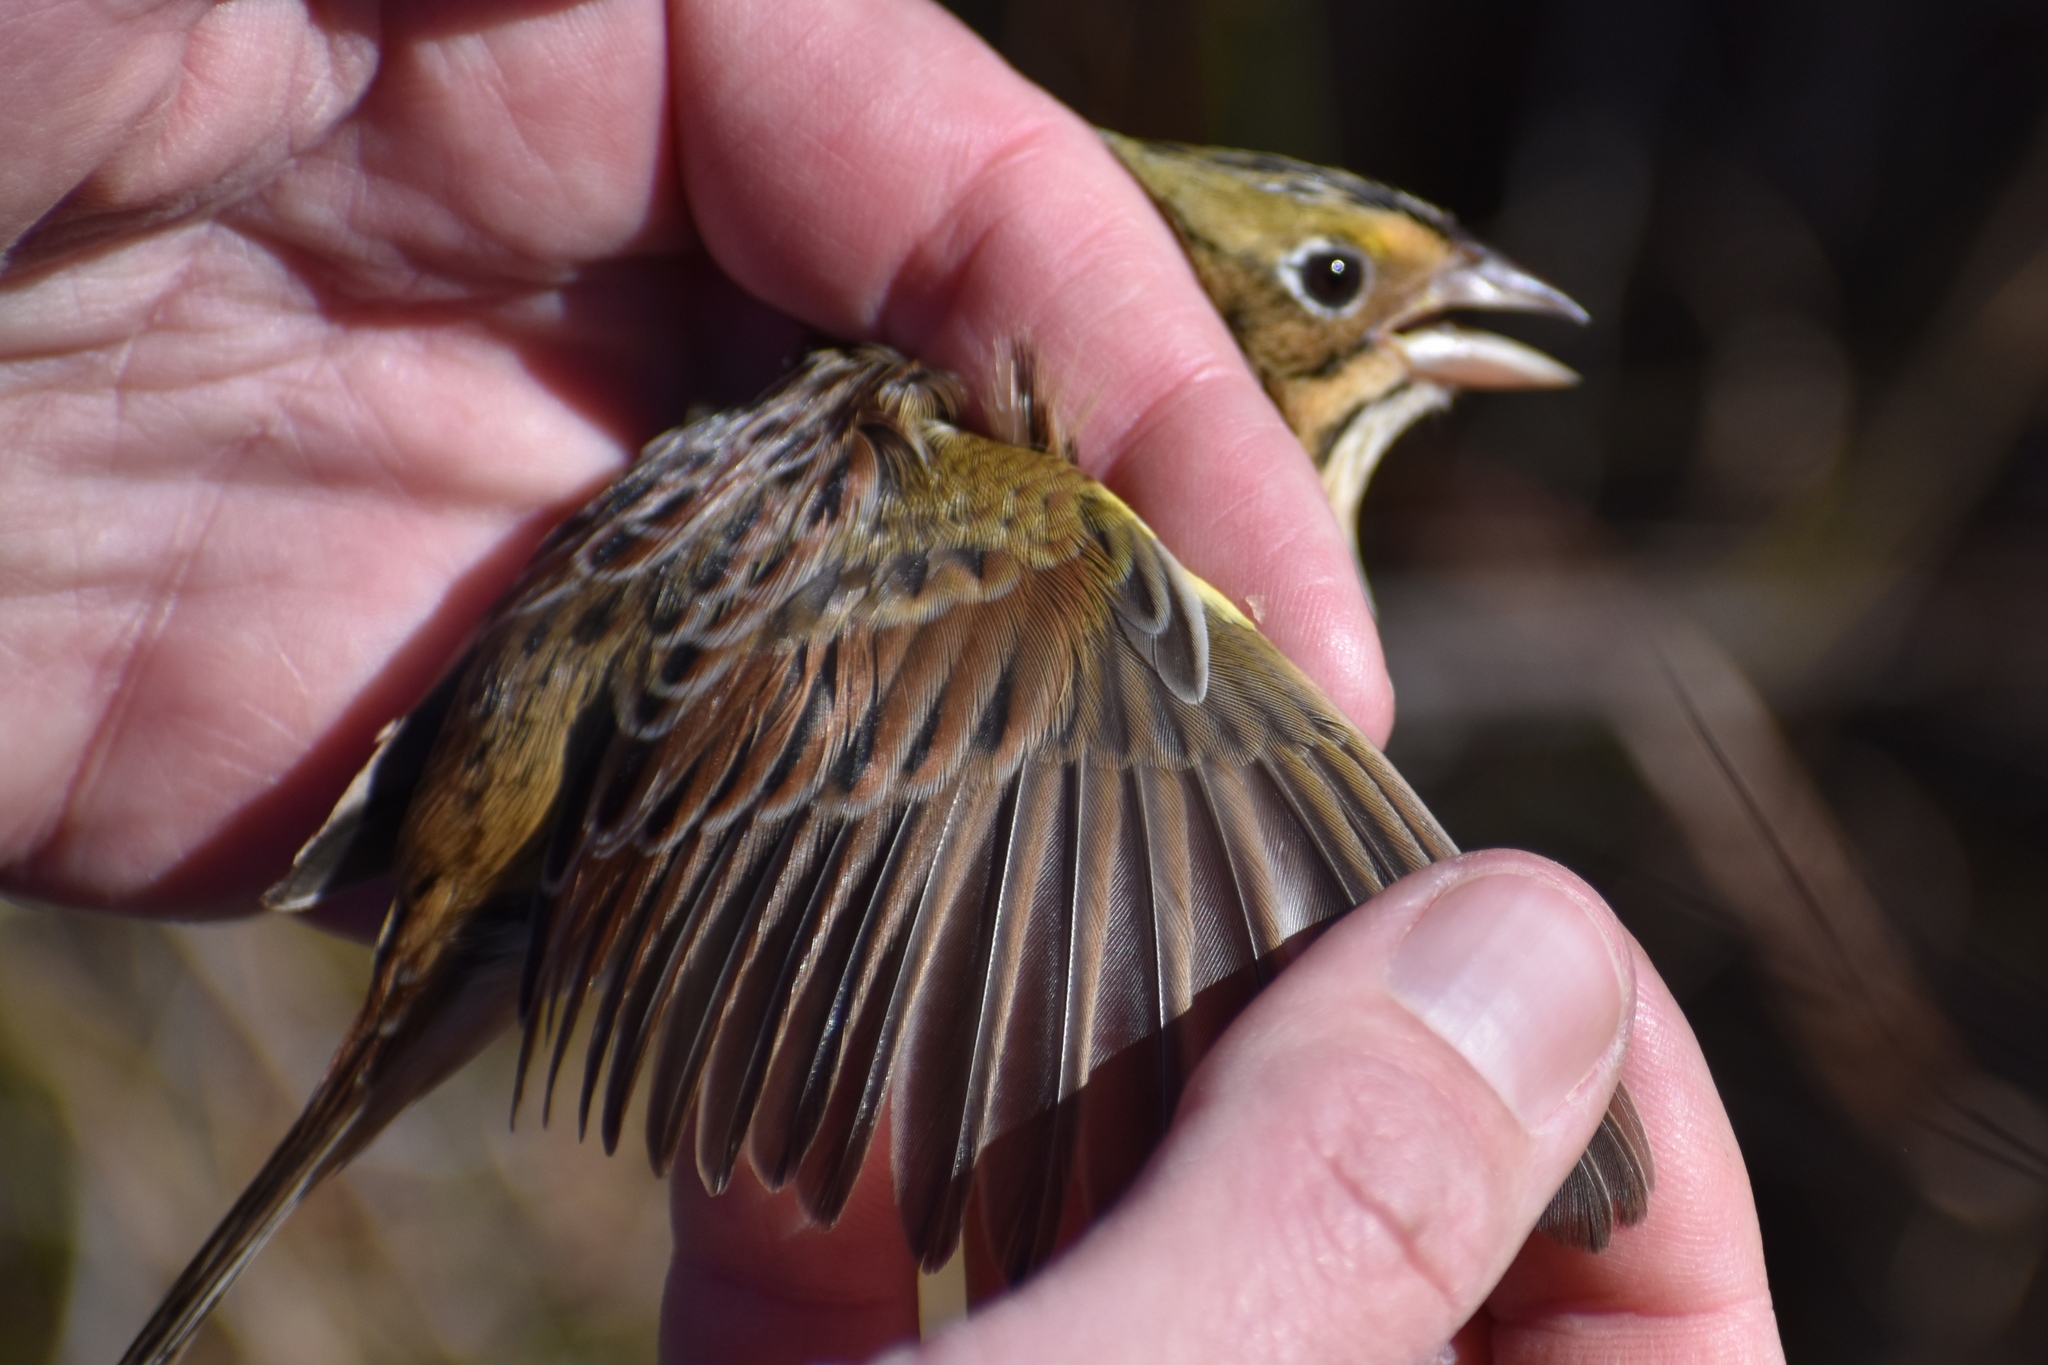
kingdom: Animalia
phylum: Chordata
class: Aves
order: Passeriformes
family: Passerellidae
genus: Centronyx
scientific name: Centronyx henslowii
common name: Henslow's sparrow
